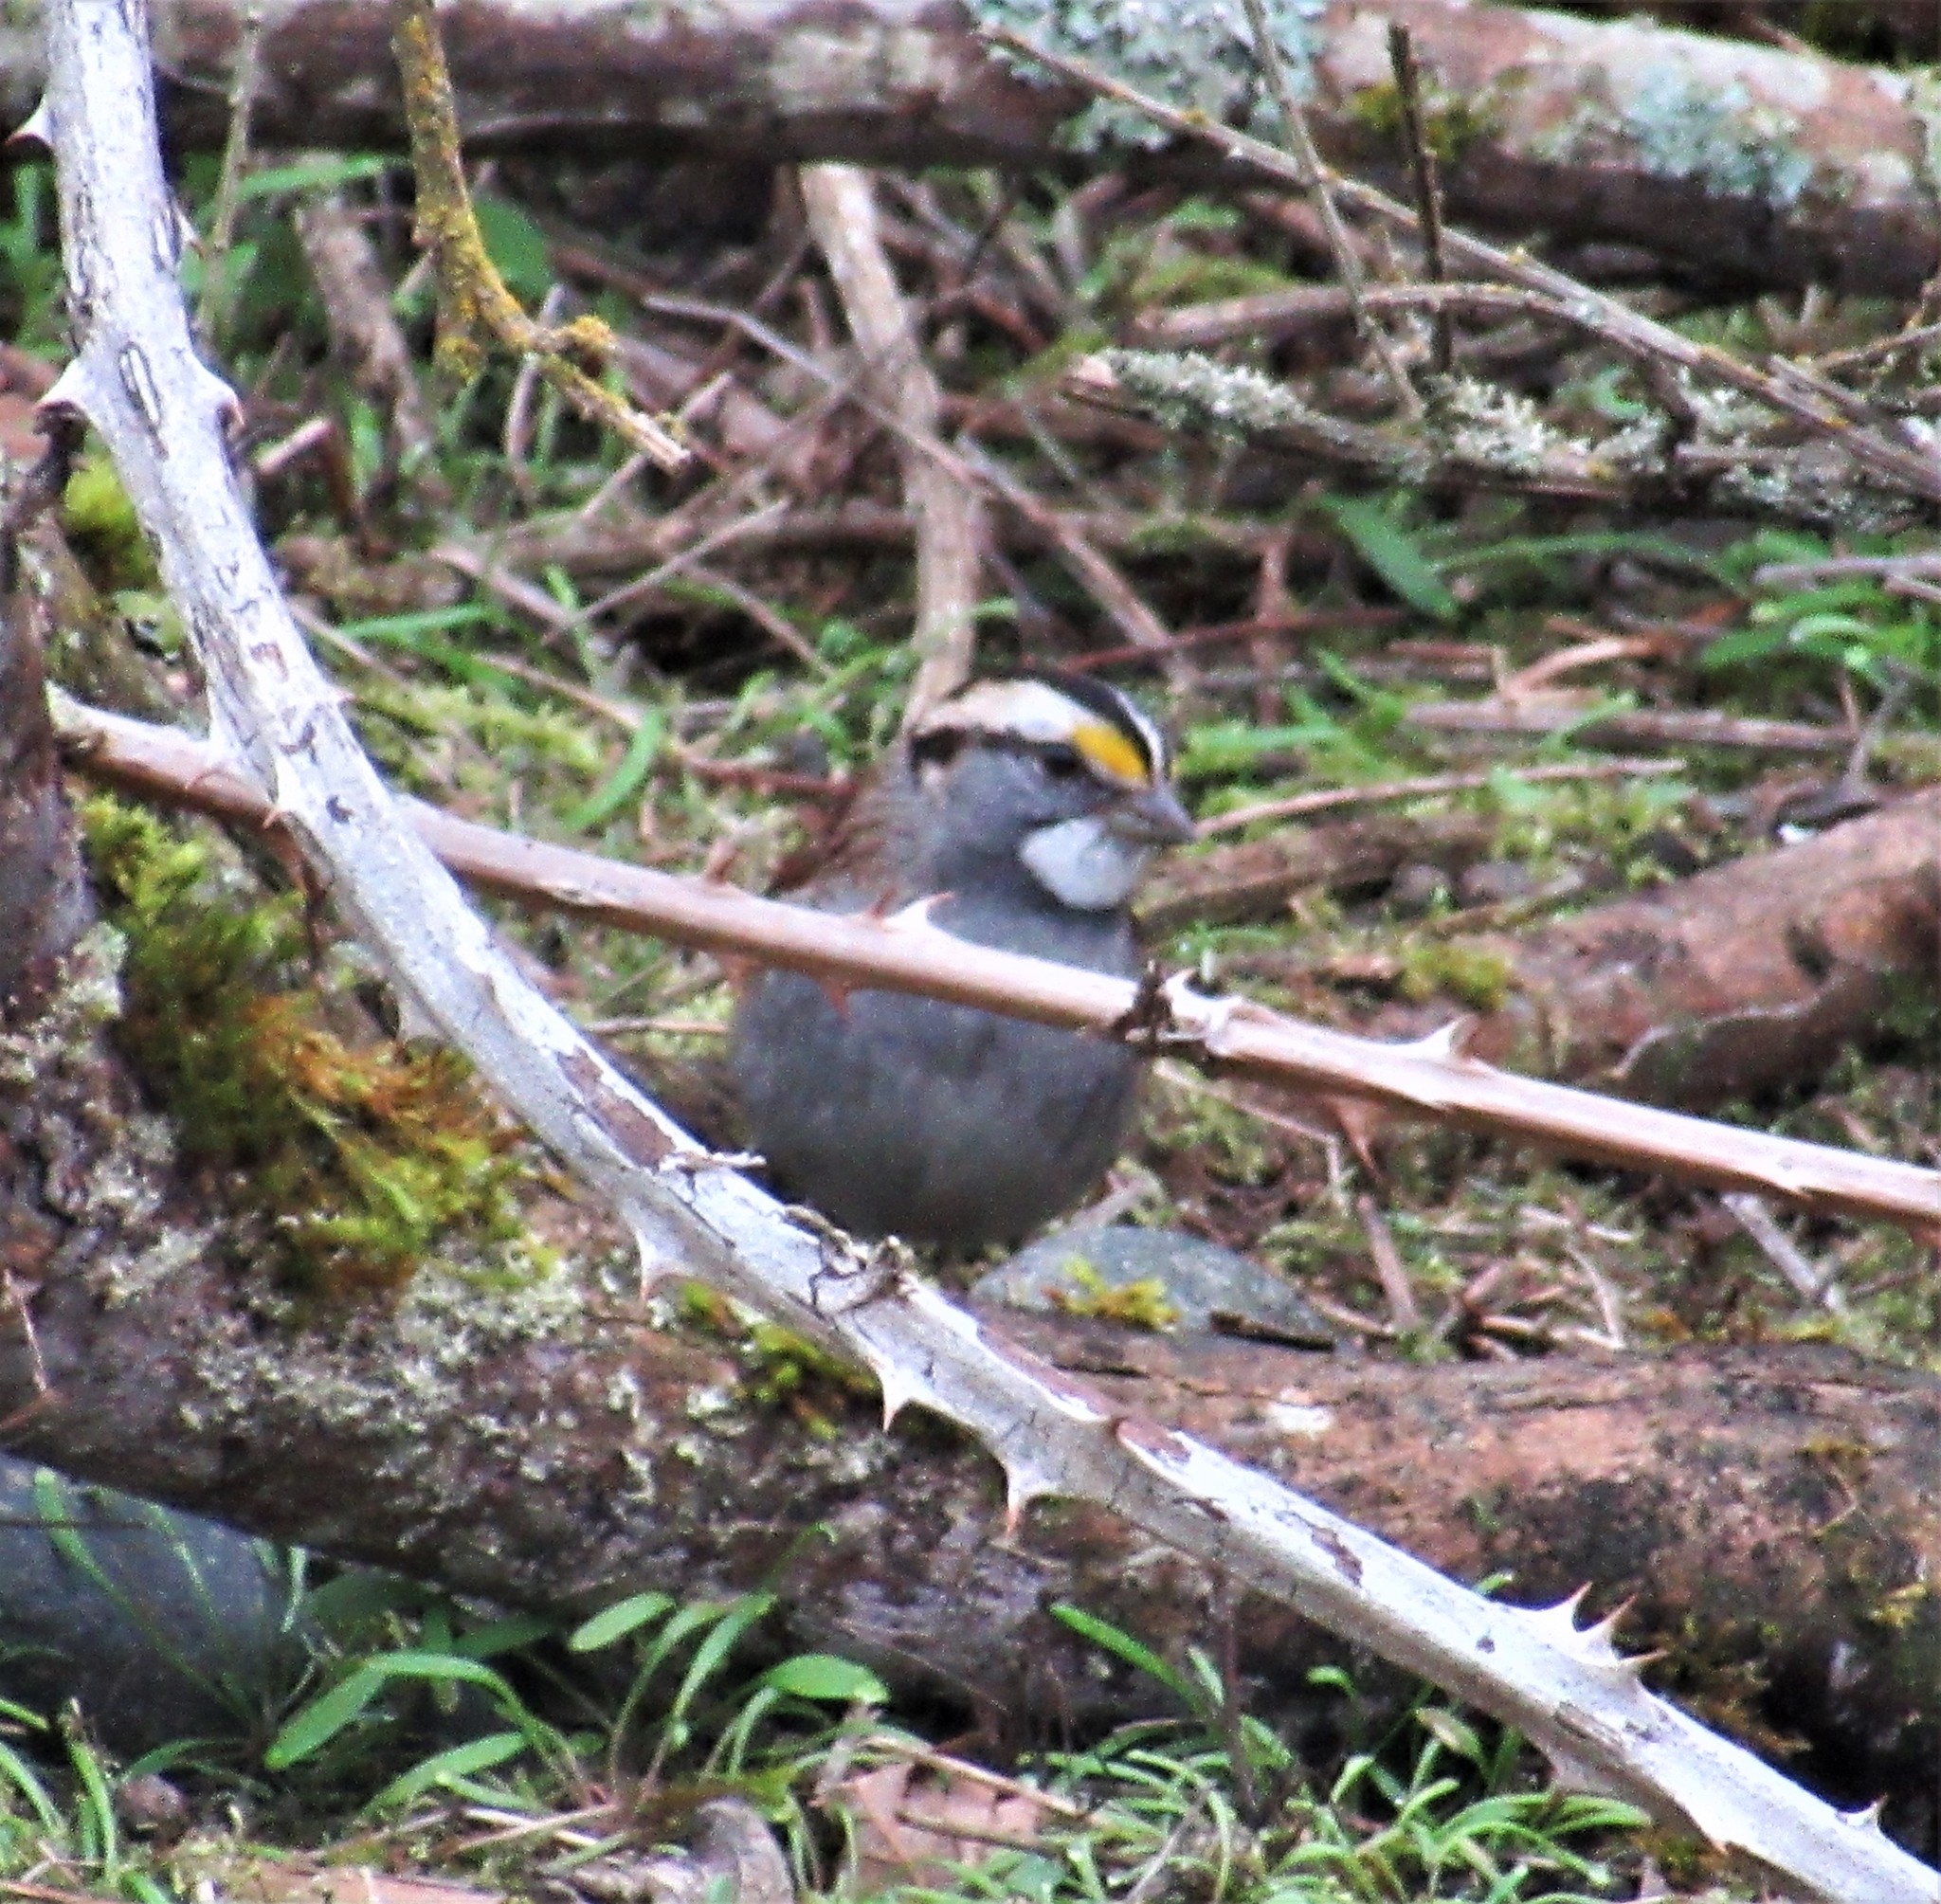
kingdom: Animalia
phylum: Chordata
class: Aves
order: Passeriformes
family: Passerellidae
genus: Zonotrichia
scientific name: Zonotrichia albicollis
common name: White-throated sparrow
